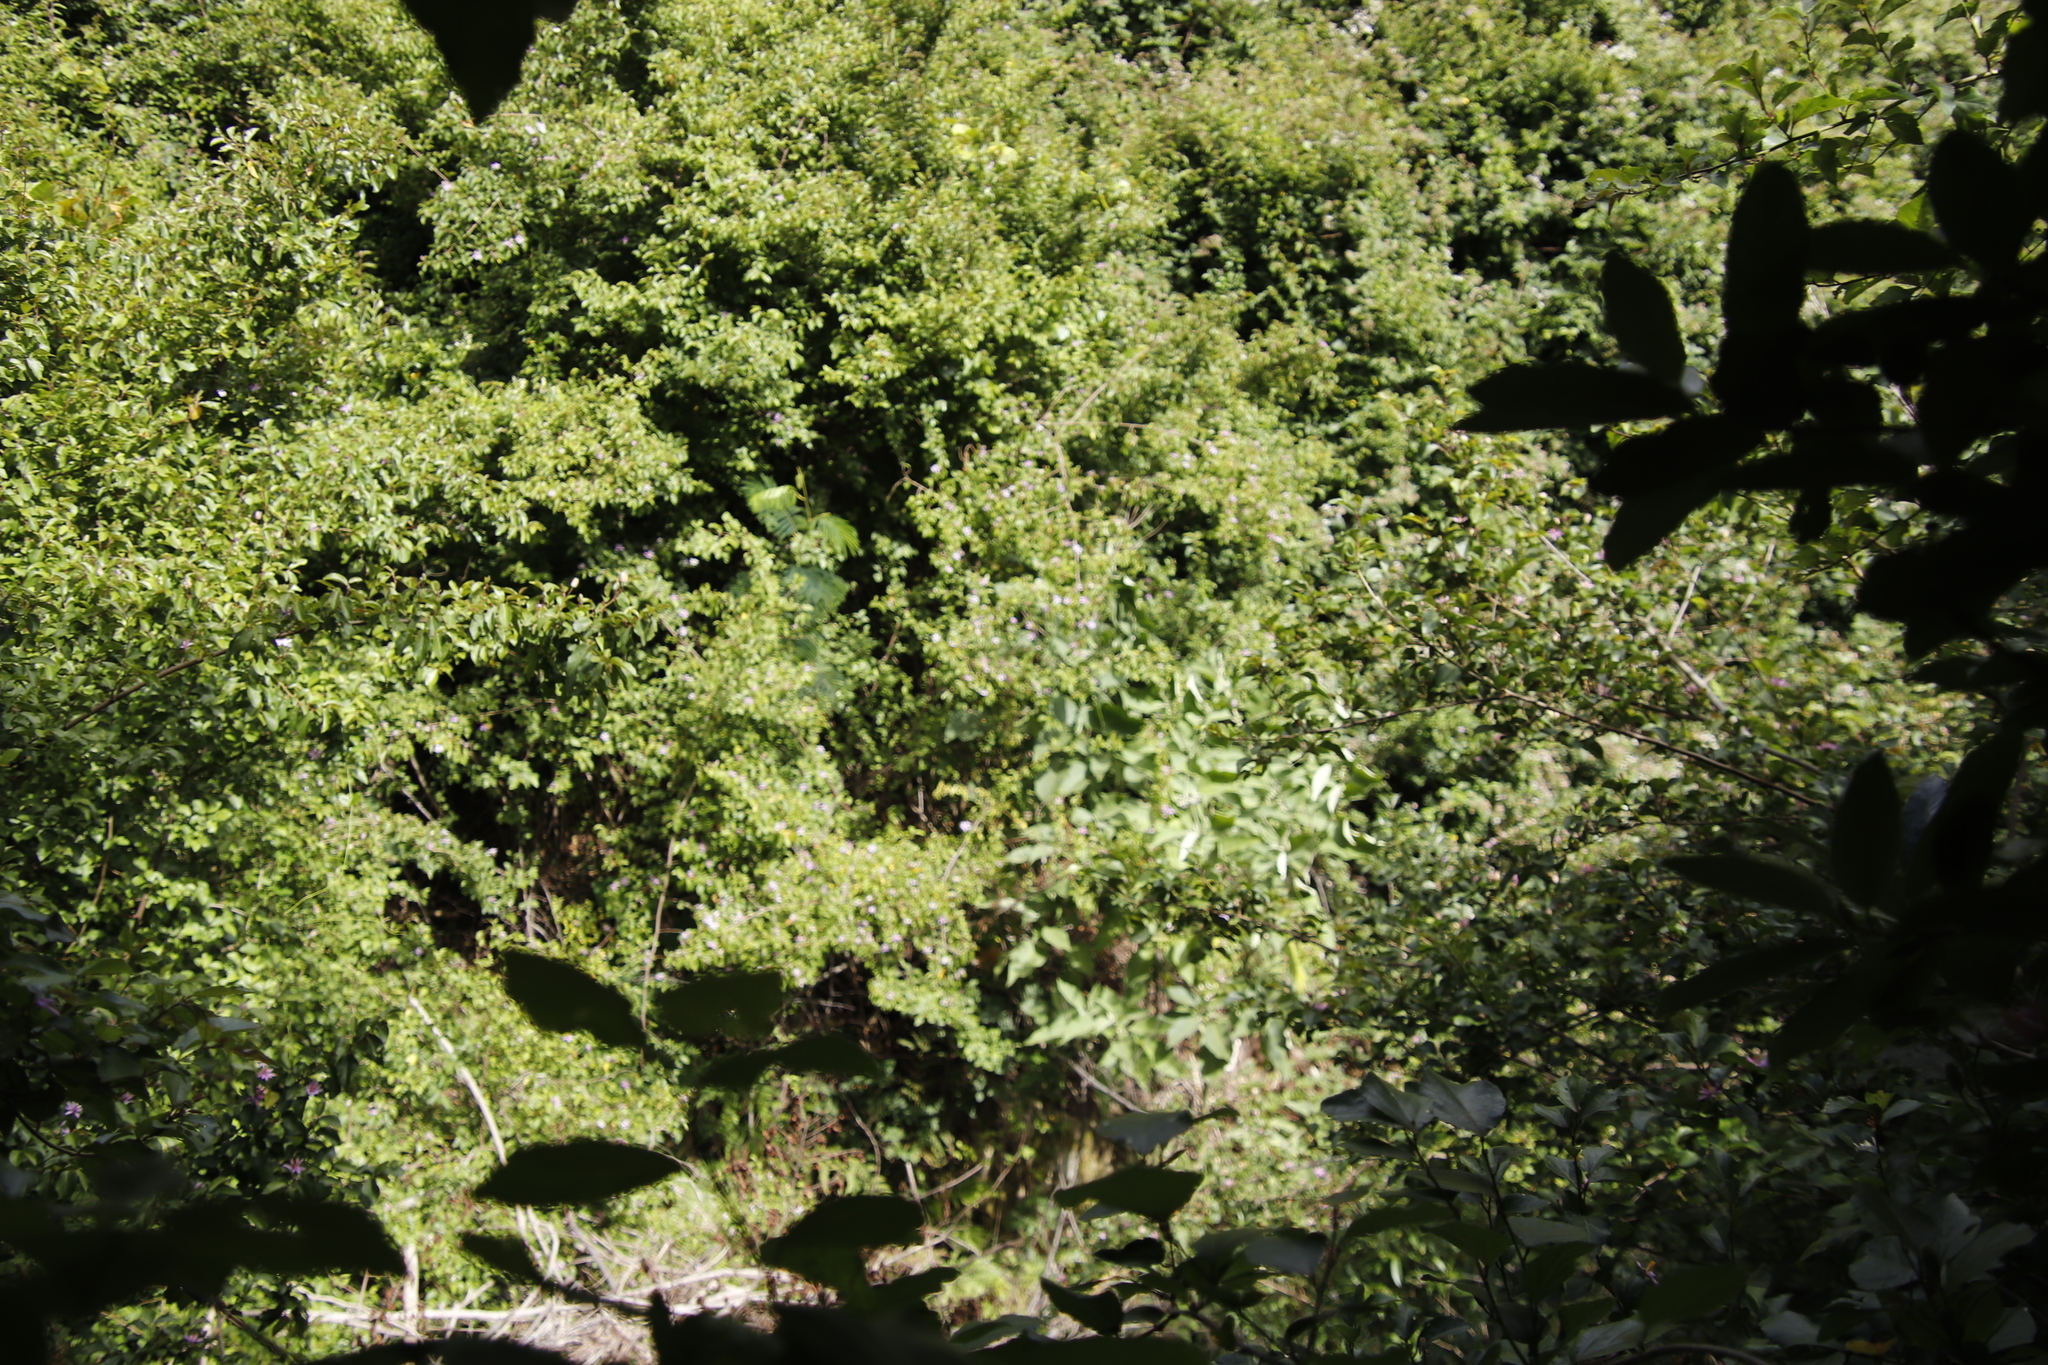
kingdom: Plantae
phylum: Tracheophyta
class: Magnoliopsida
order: Malvales
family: Malvaceae
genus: Grewia
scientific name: Grewia occidentalis
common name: Crossberry
